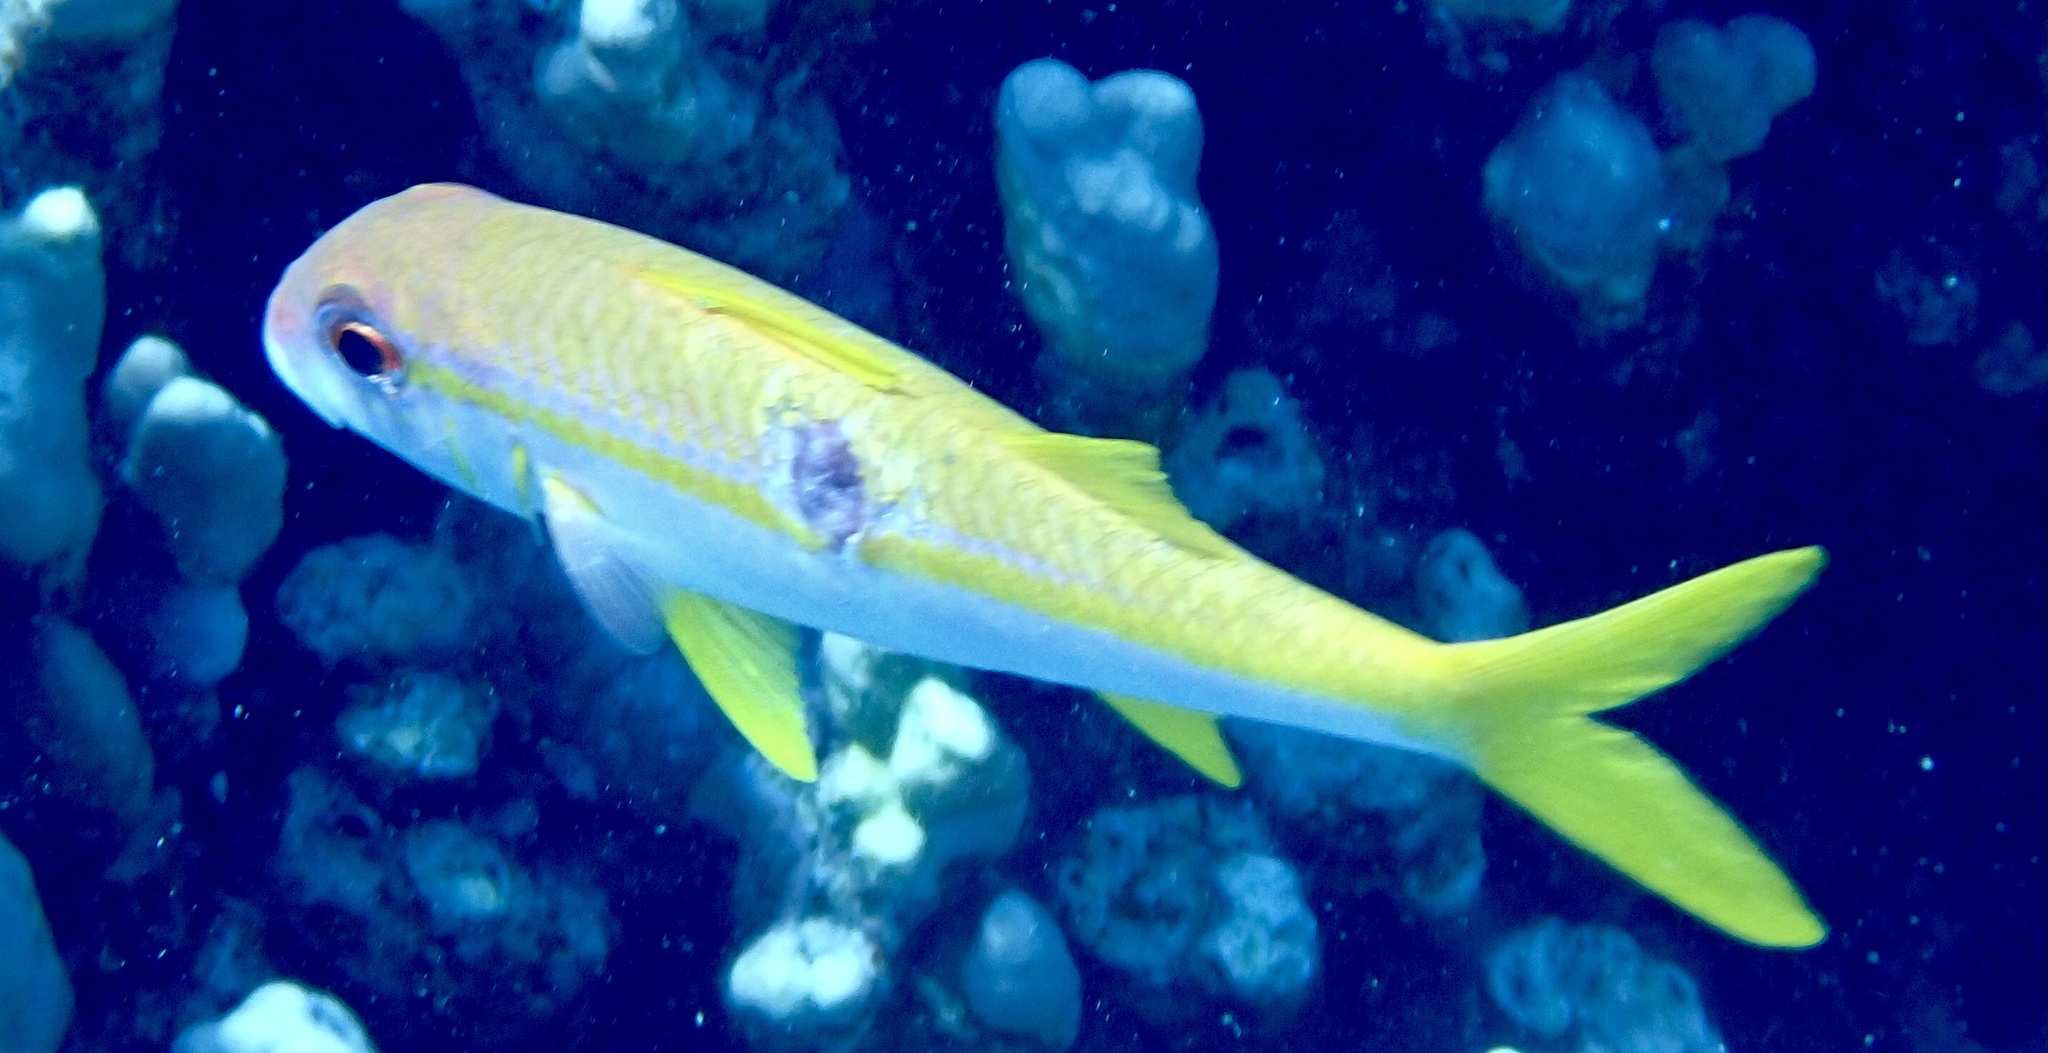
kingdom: Animalia
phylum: Chordata
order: Perciformes
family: Mullidae
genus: Mulloidichthys
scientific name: Mulloidichthys vanicolensis
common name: Yellowfin goatfish
